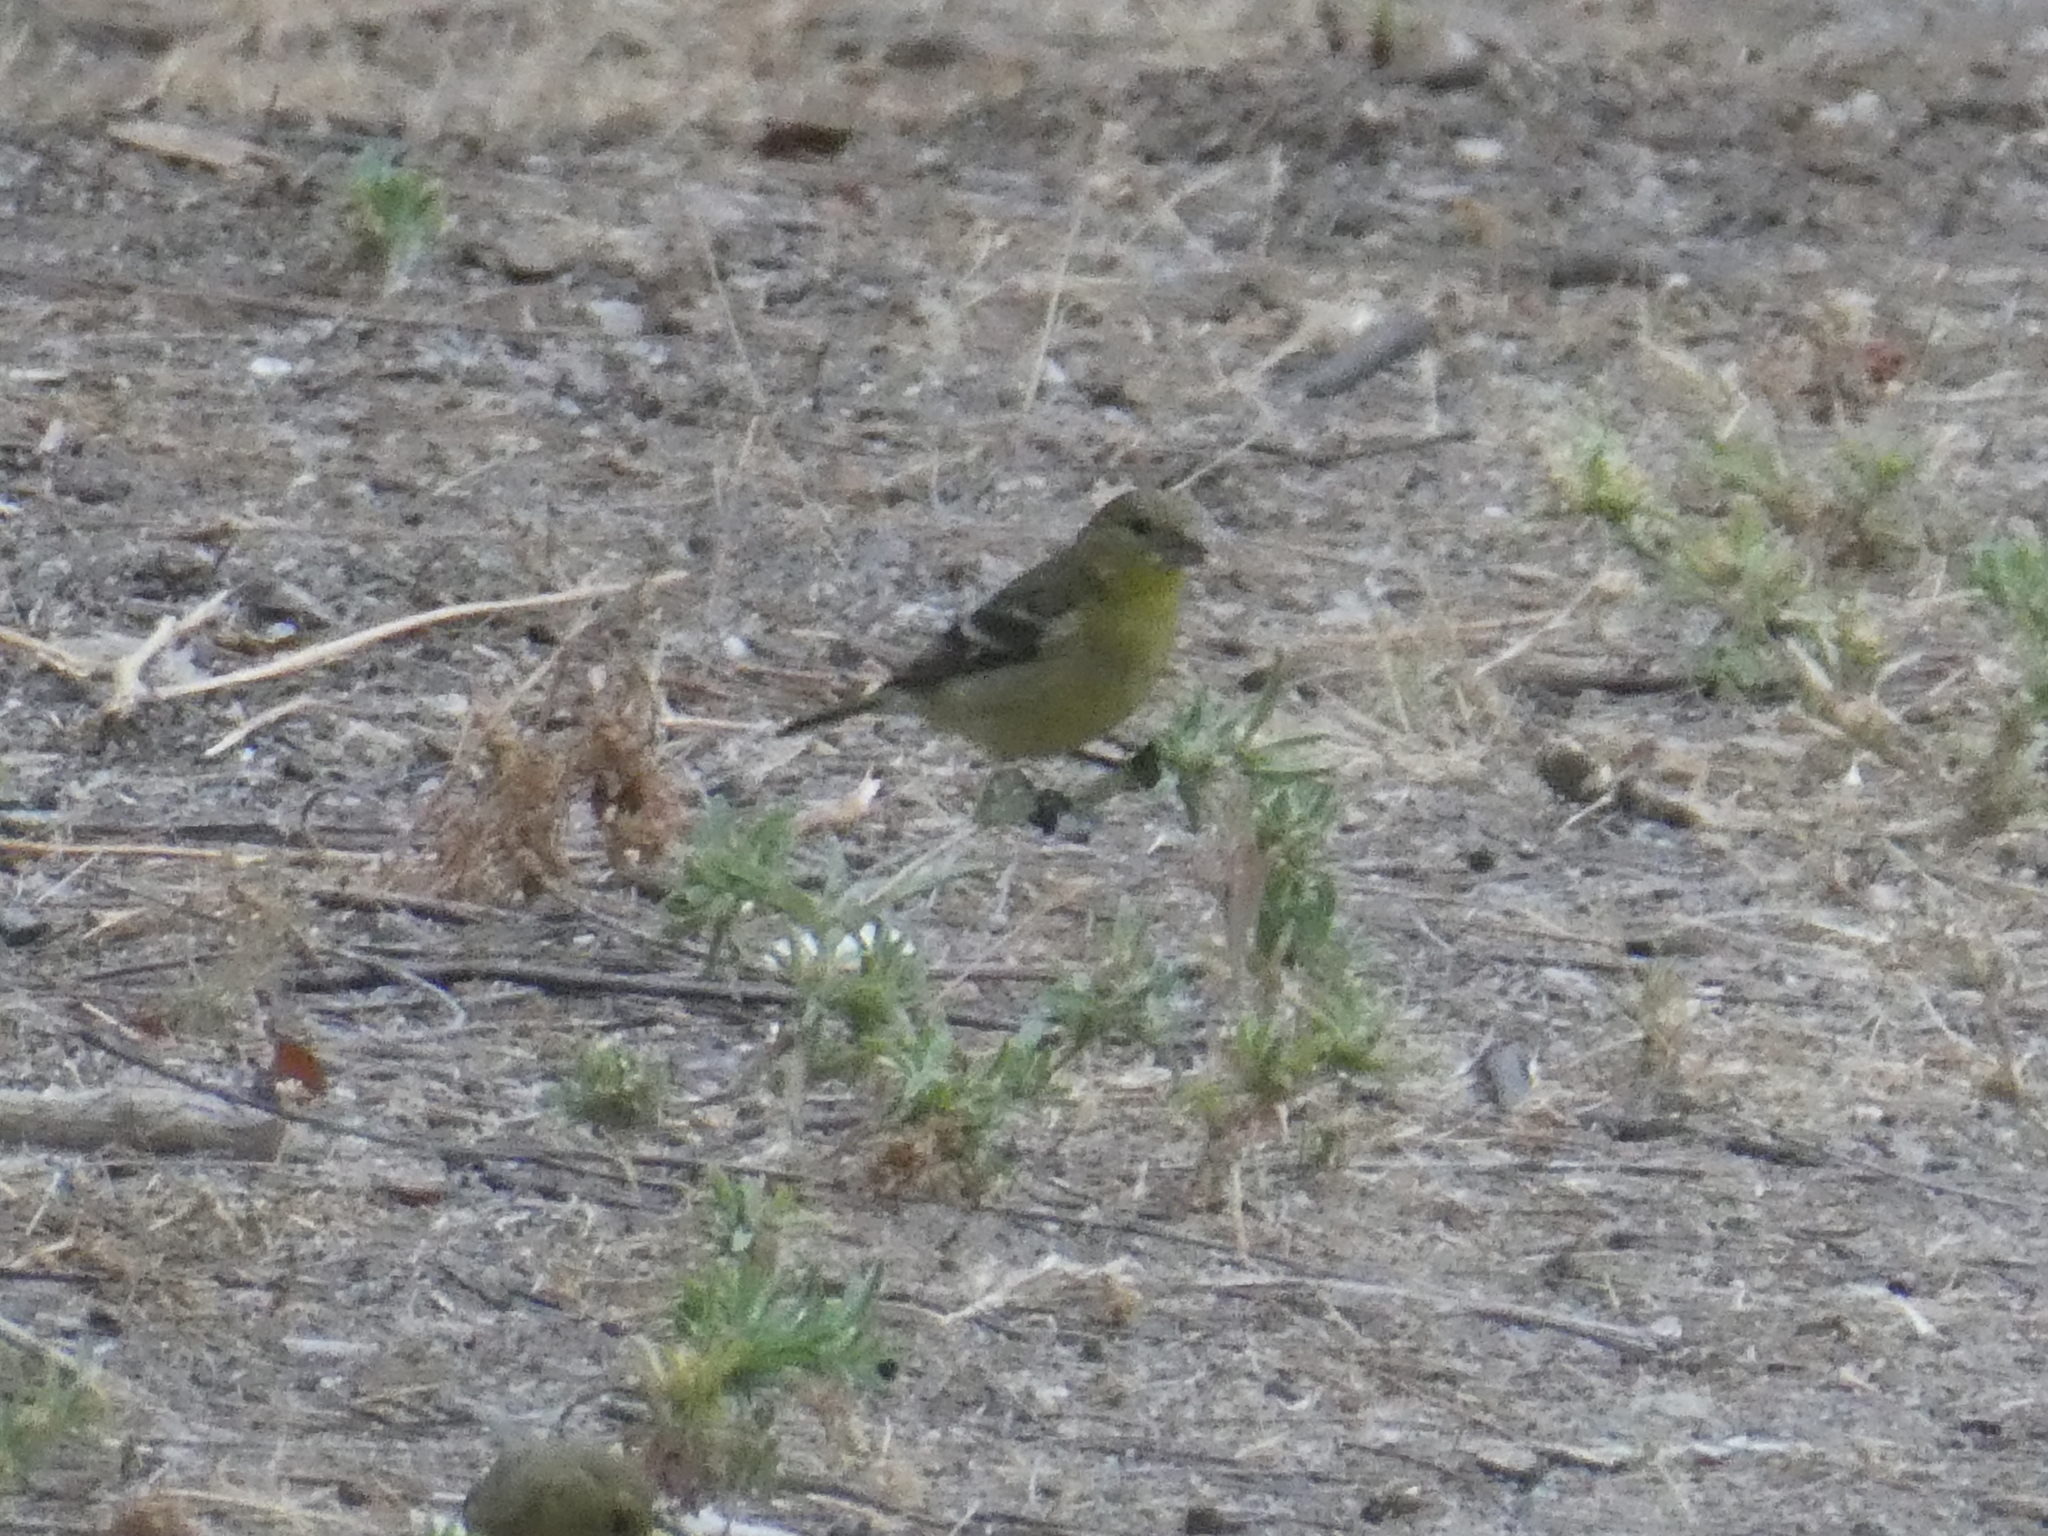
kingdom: Animalia
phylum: Chordata
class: Aves
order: Passeriformes
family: Fringillidae
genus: Spinus
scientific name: Spinus psaltria
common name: Lesser goldfinch
